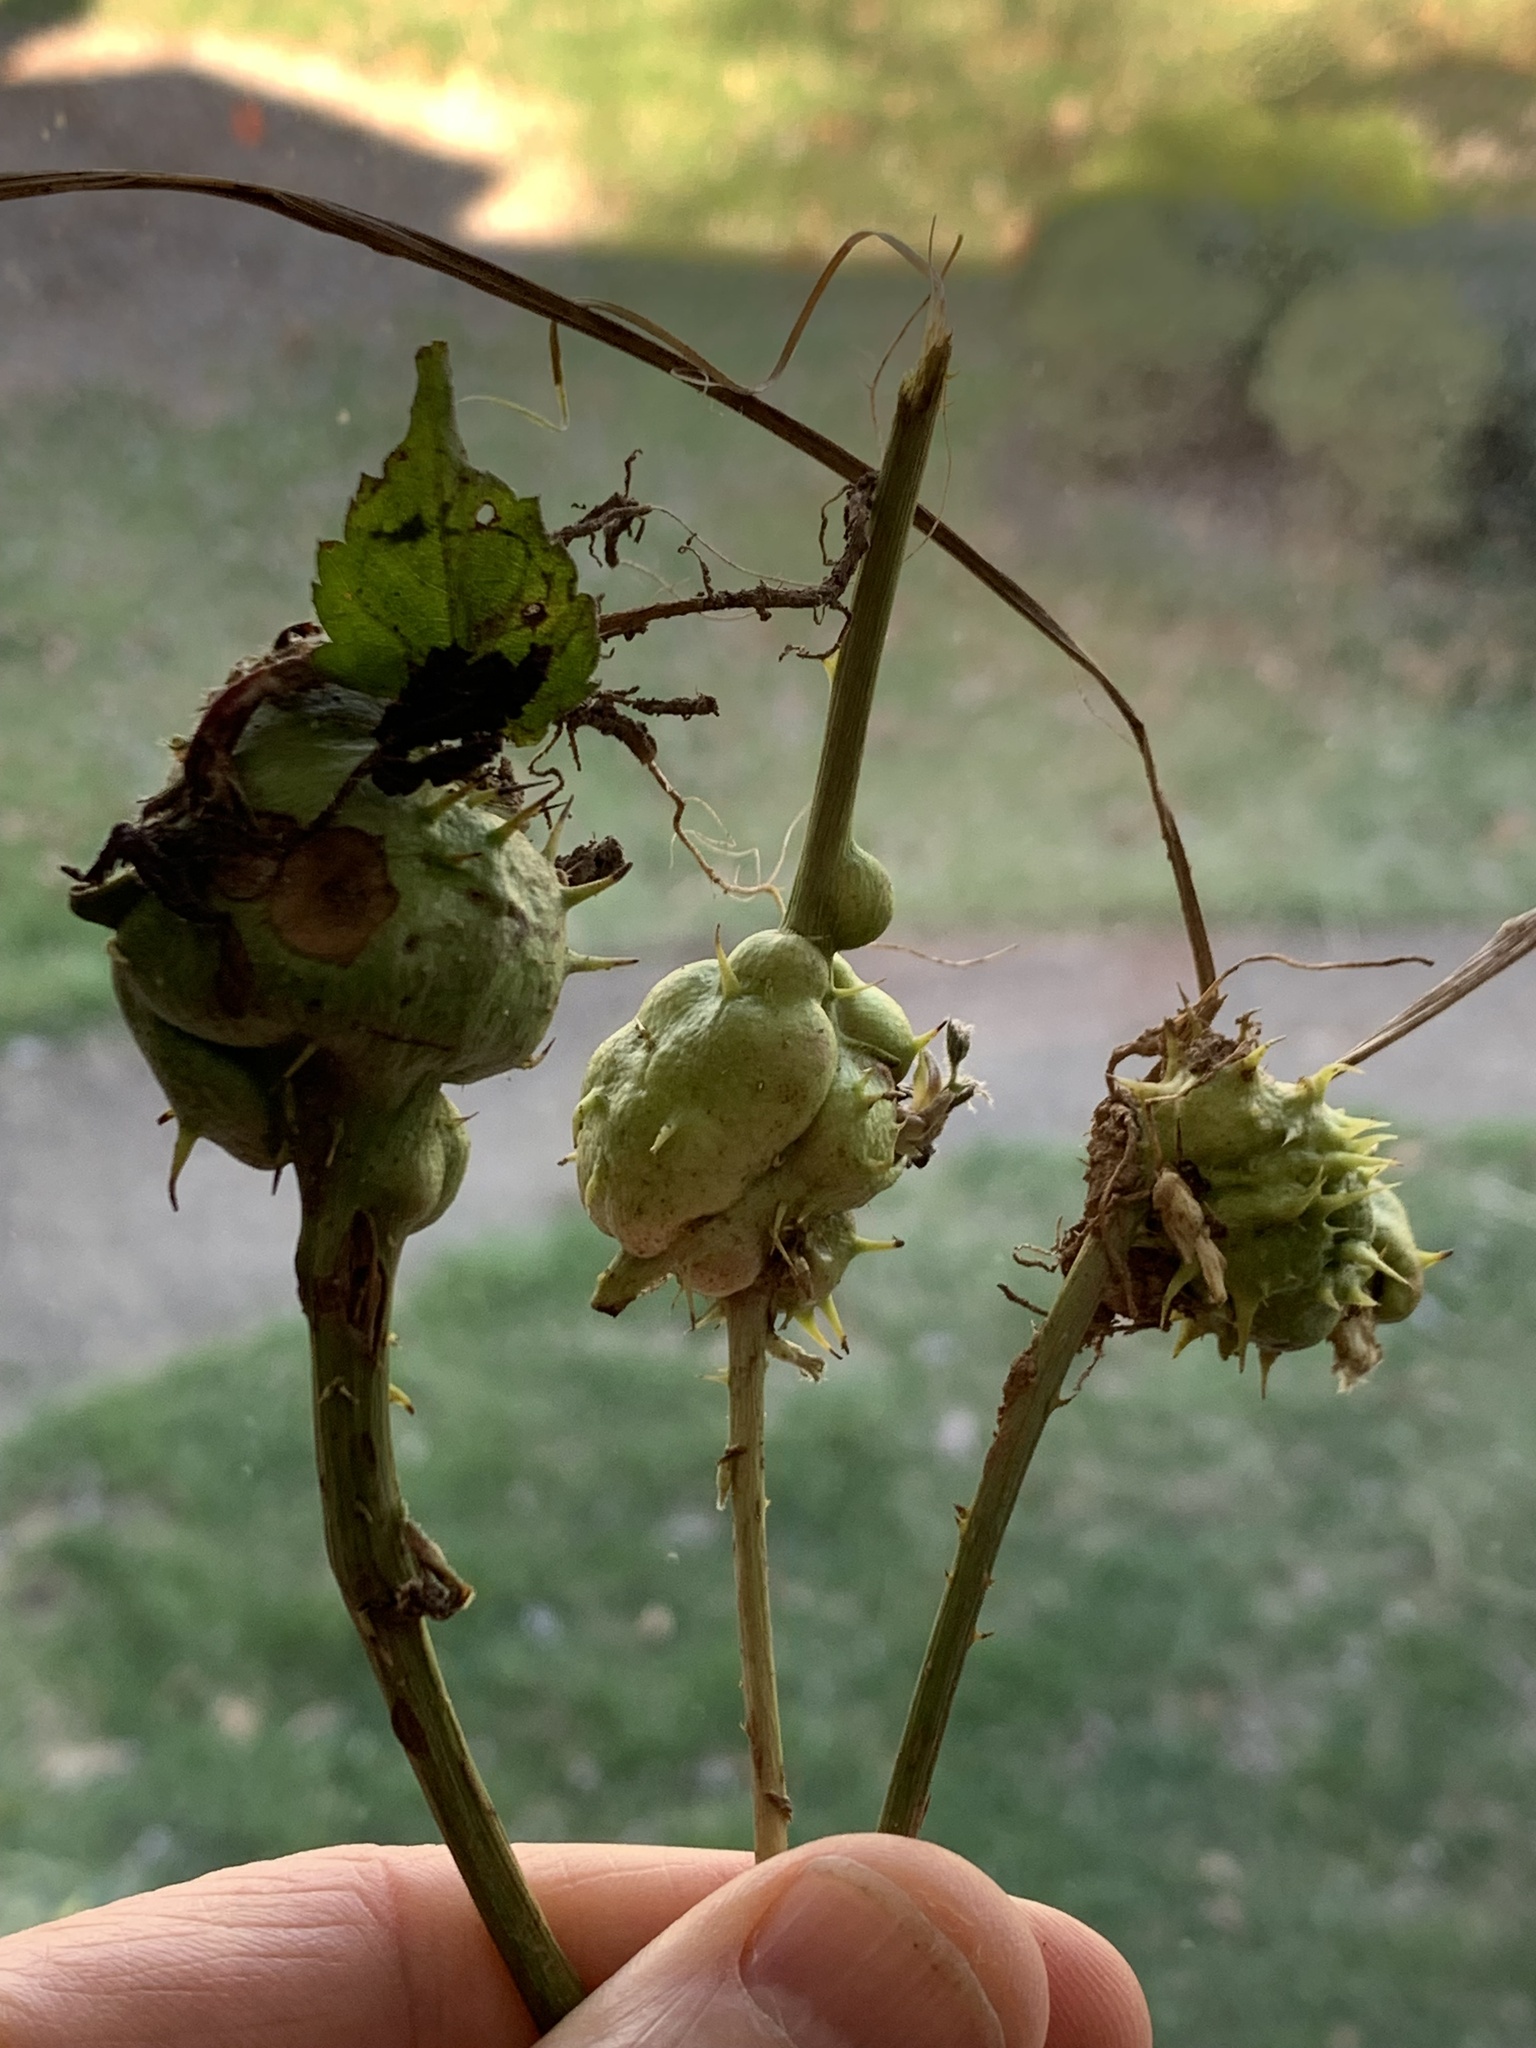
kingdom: Animalia
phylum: Arthropoda
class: Insecta
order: Hymenoptera
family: Cynipidae
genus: Diastrophus
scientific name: Diastrophus
